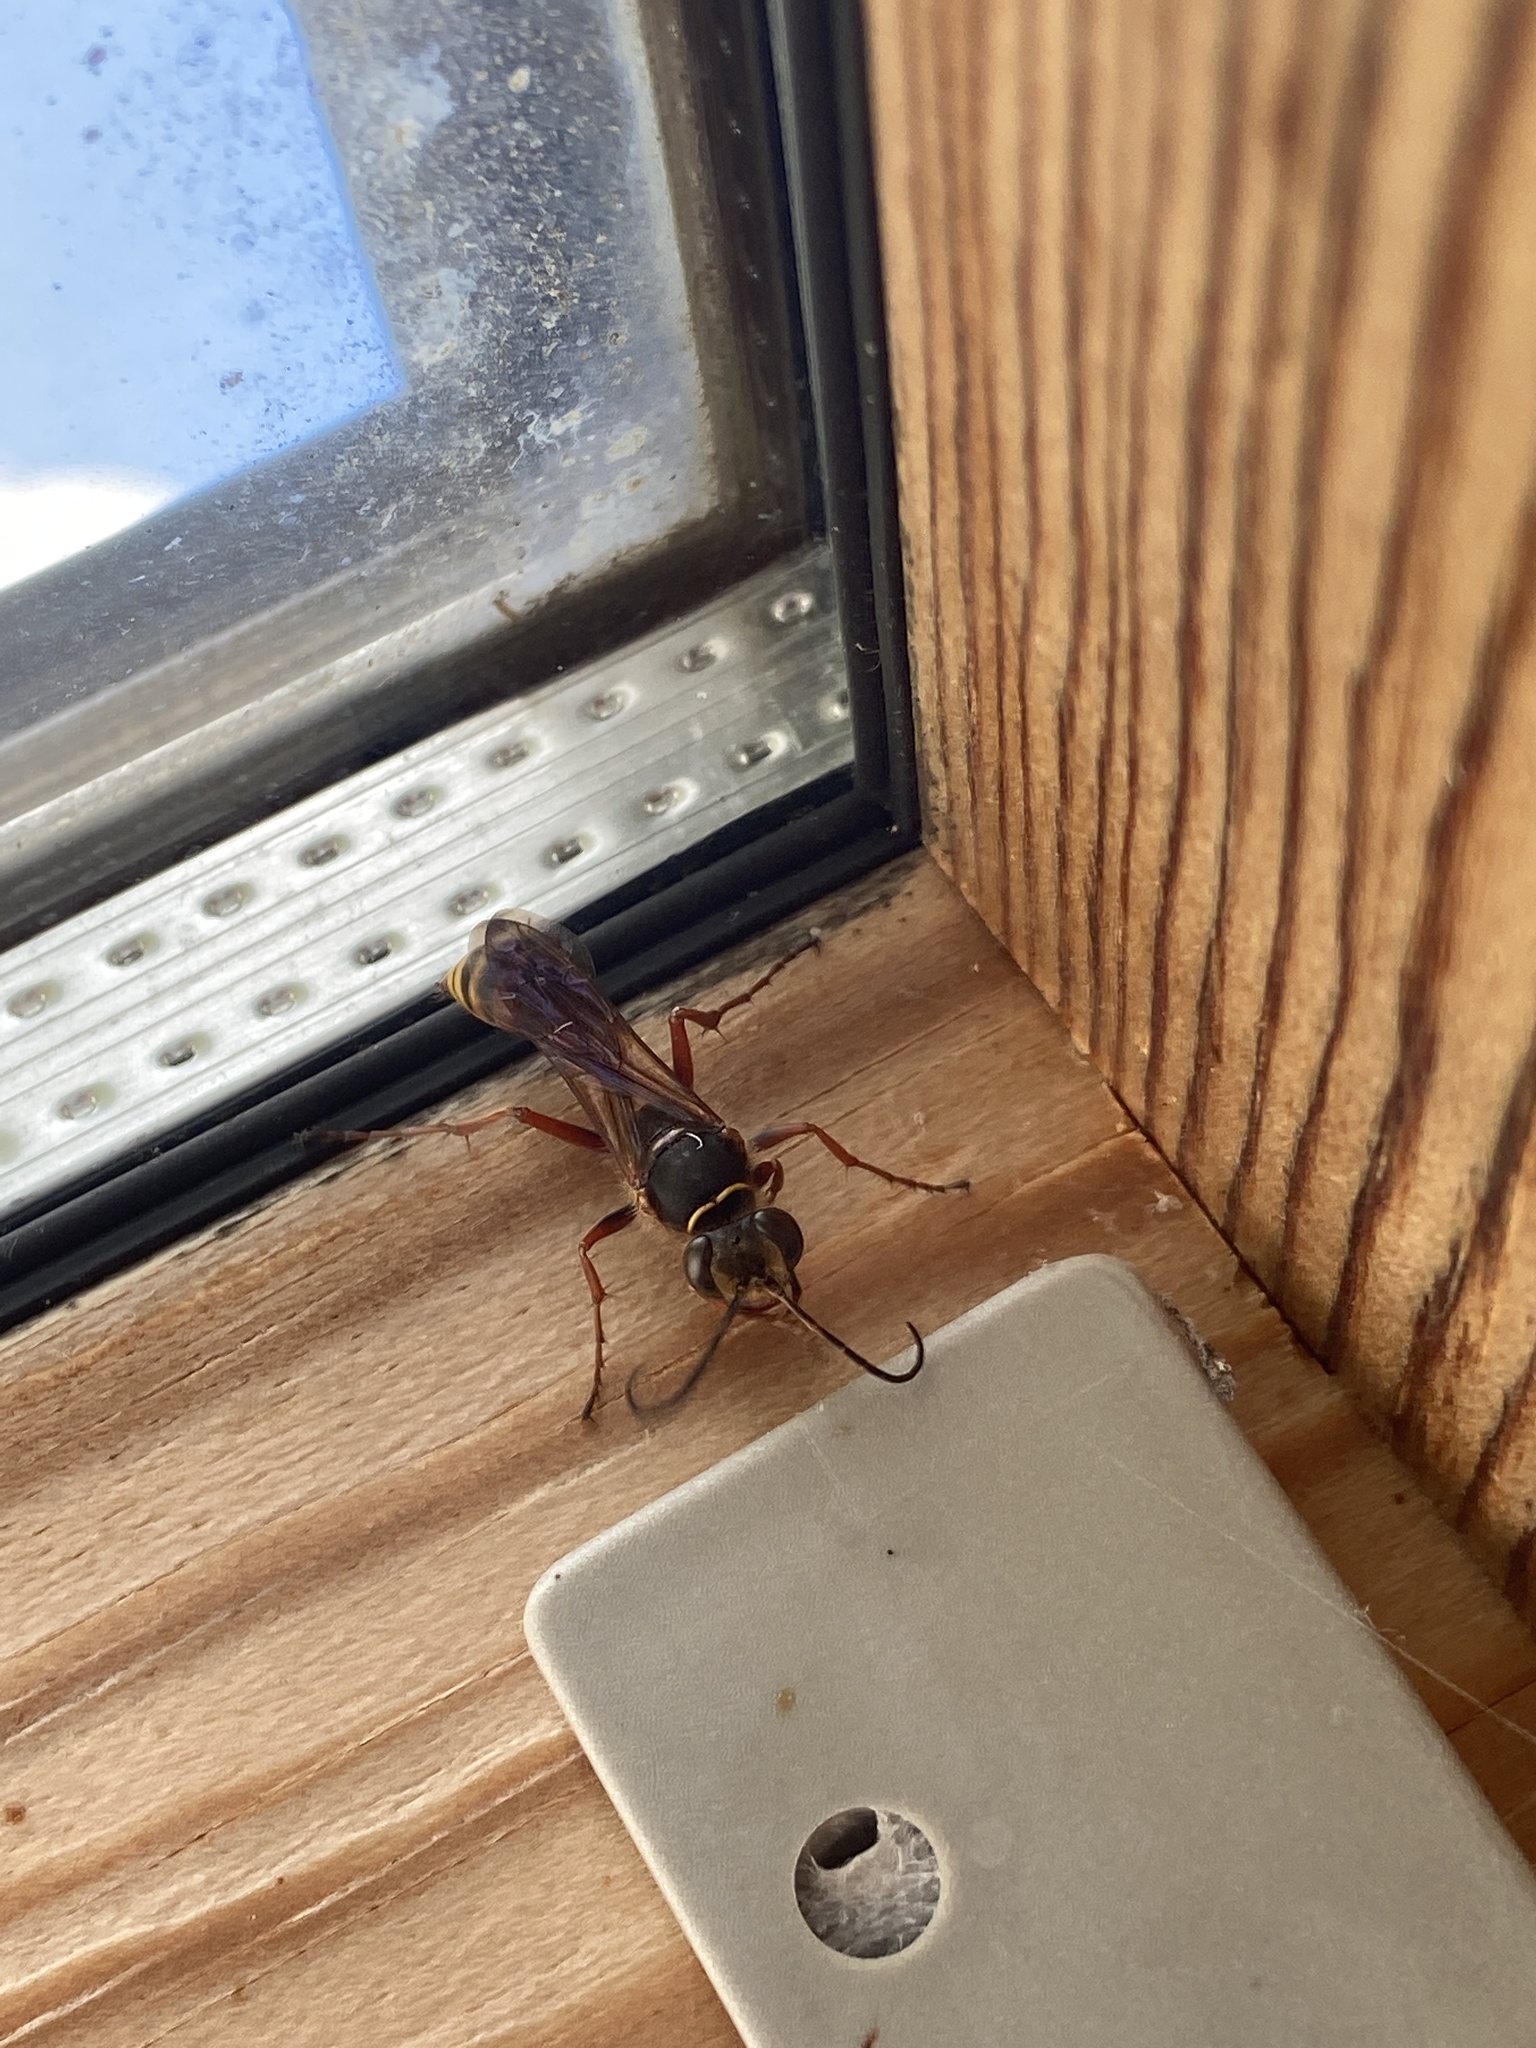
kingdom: Animalia
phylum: Arthropoda
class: Insecta
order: Hymenoptera
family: Sphecidae
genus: Sceliphron
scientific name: Sceliphron curvatum
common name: Pèlopèe
